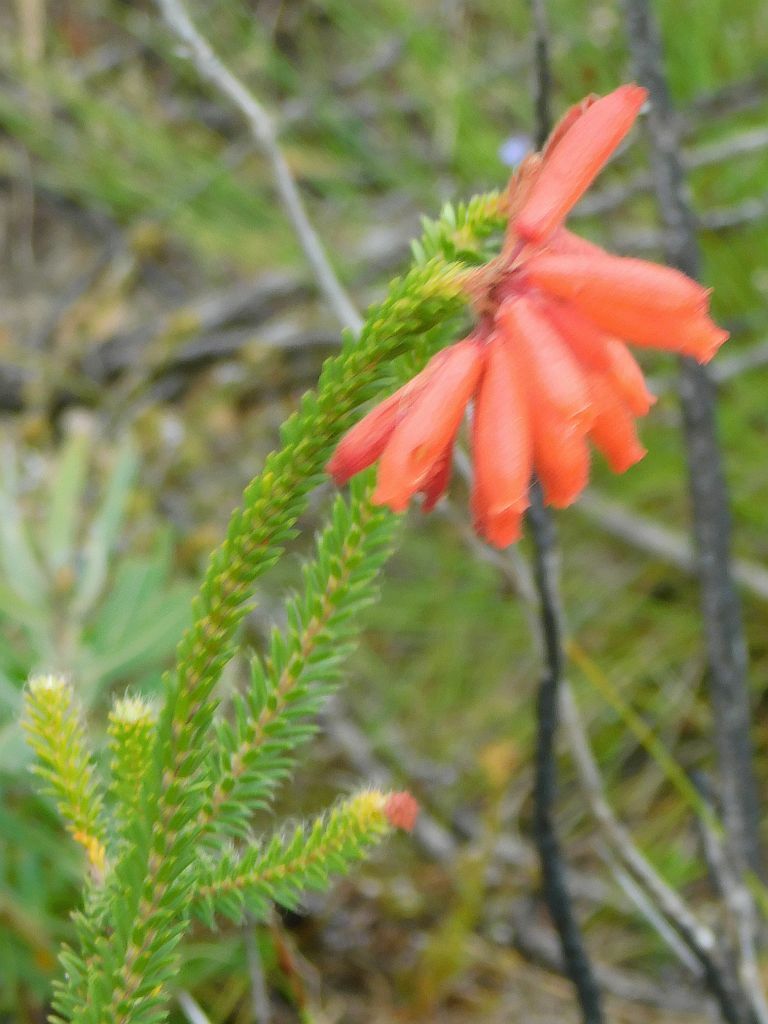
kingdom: Plantae
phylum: Tracheophyta
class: Magnoliopsida
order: Ericales
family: Ericaceae
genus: Erica
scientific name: Erica cerinthoides
